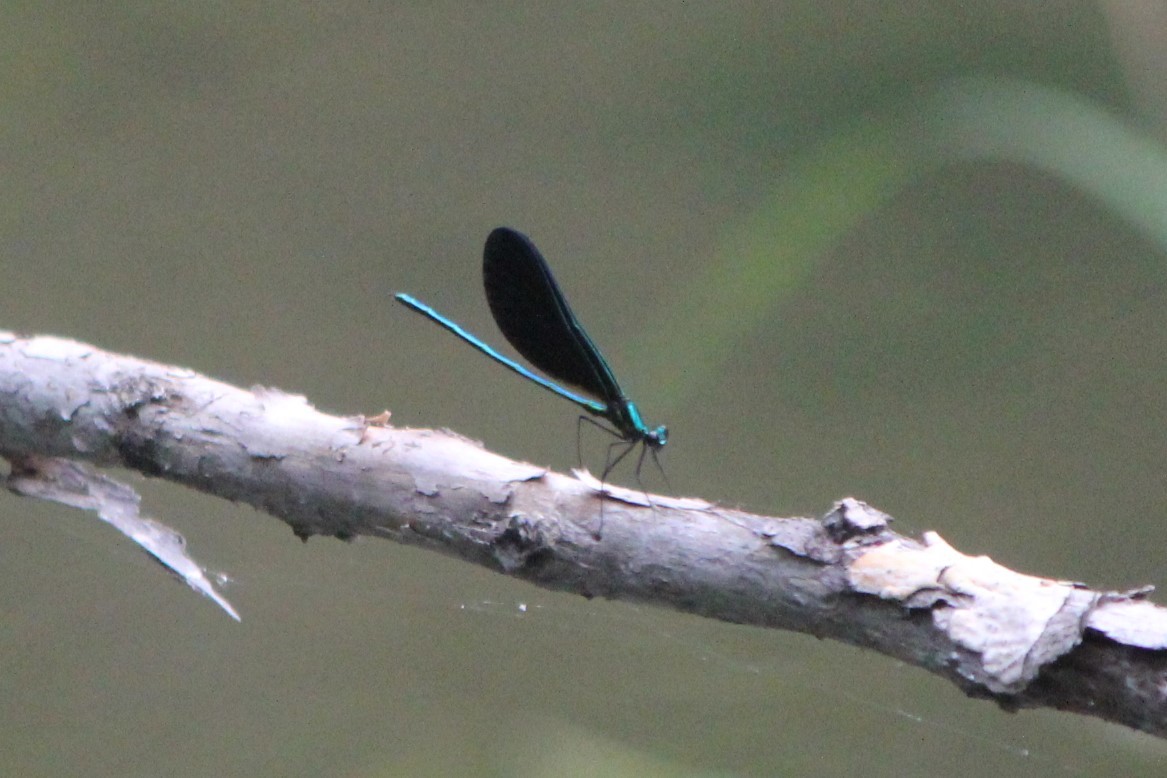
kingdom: Animalia
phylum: Arthropoda
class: Insecta
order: Odonata
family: Calopterygidae
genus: Calopteryx
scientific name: Calopteryx maculata
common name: Ebony jewelwing
